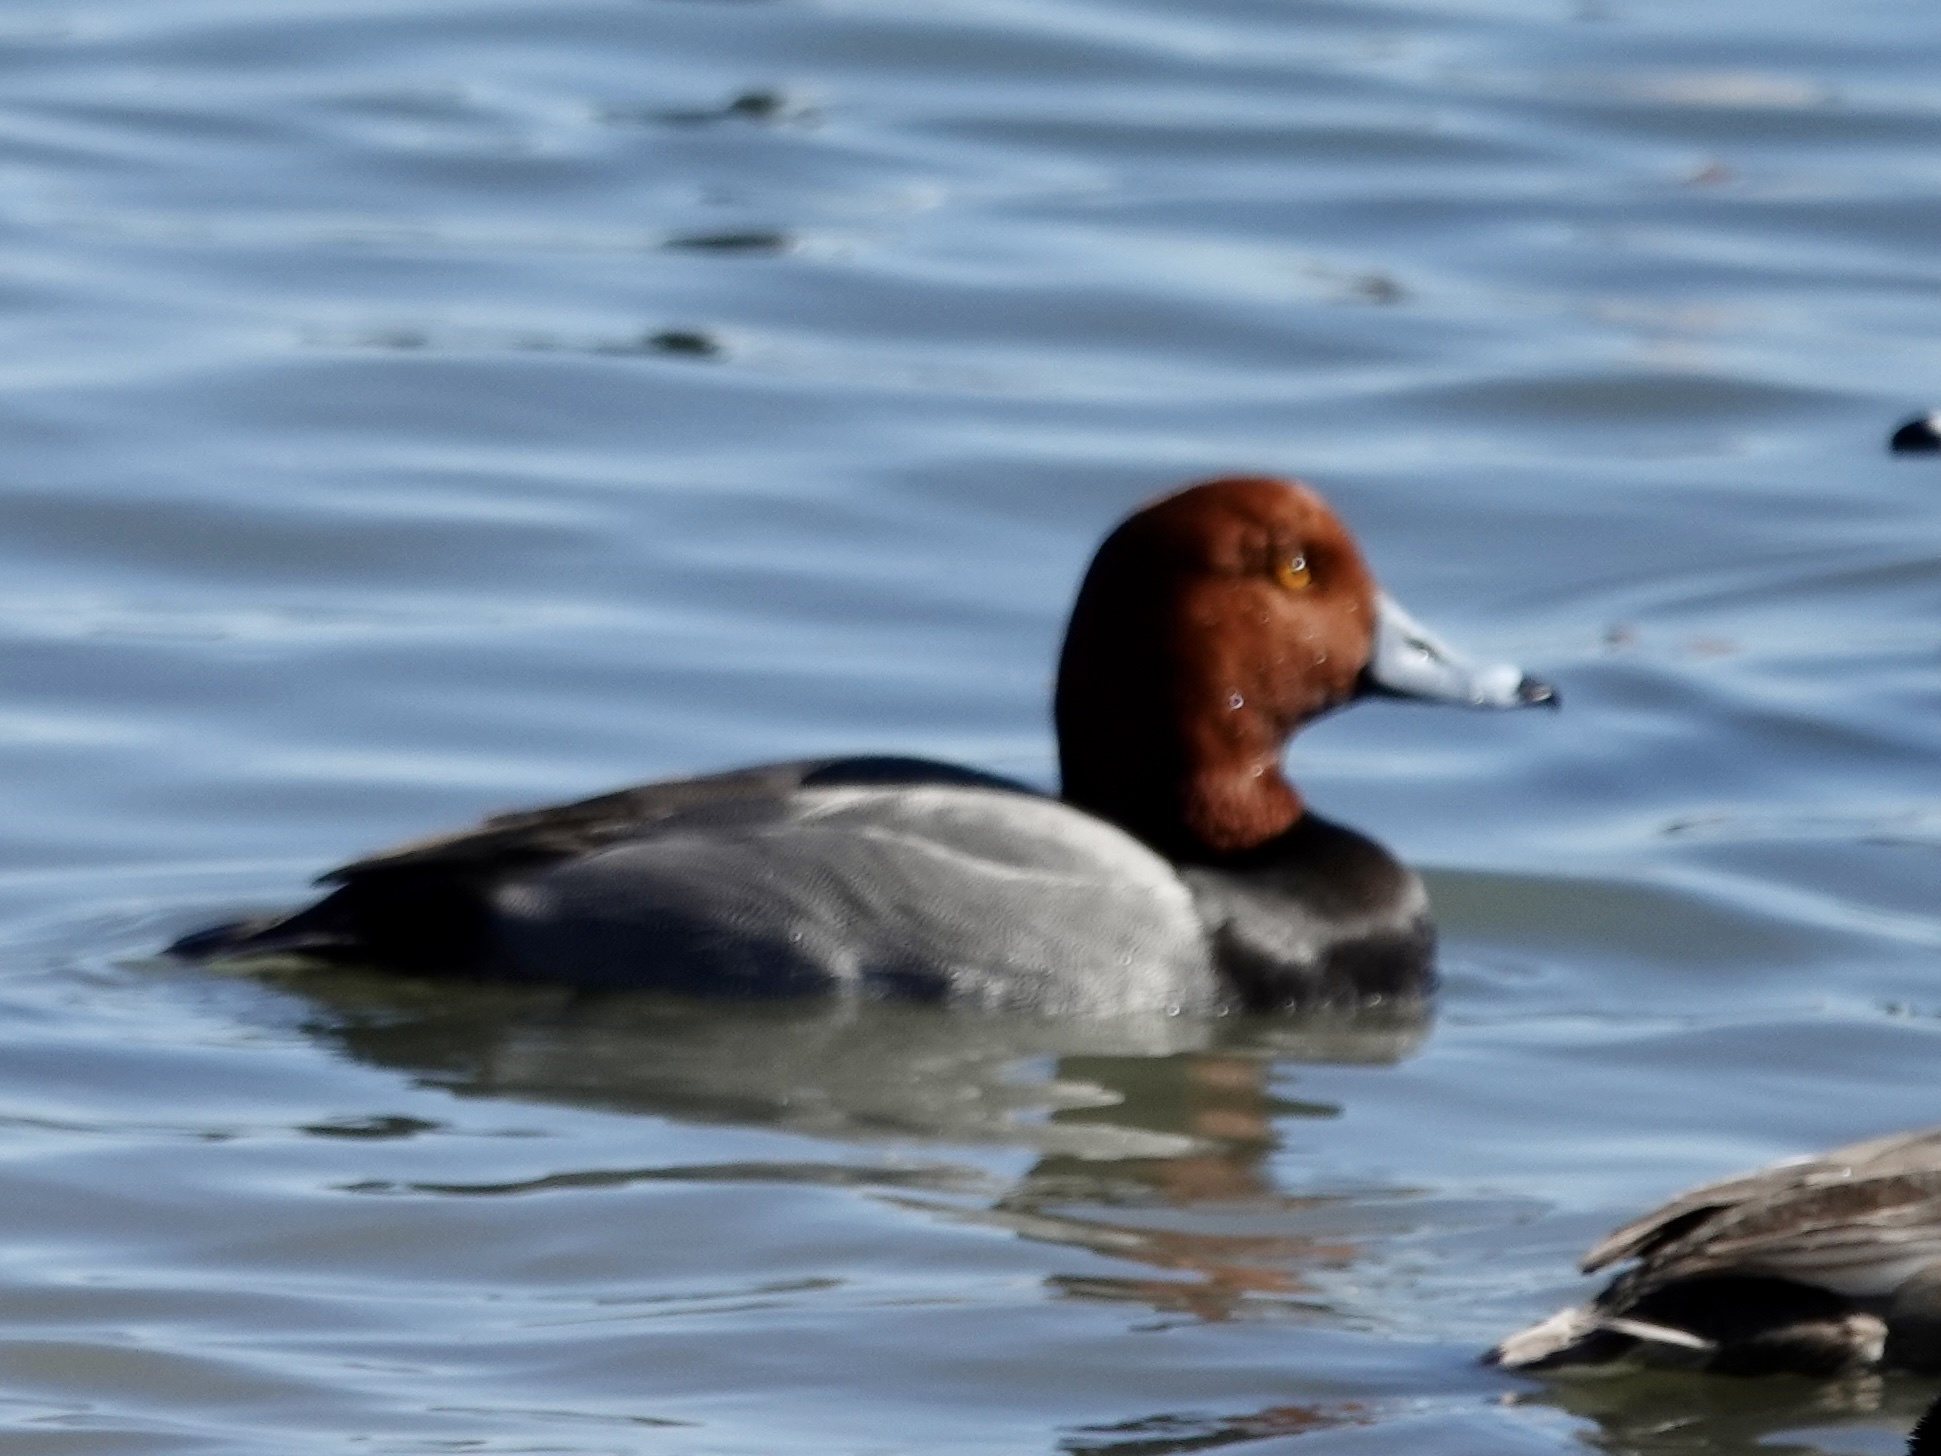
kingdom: Animalia
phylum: Chordata
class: Aves
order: Anseriformes
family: Anatidae
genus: Aythya
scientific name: Aythya americana
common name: Redhead
